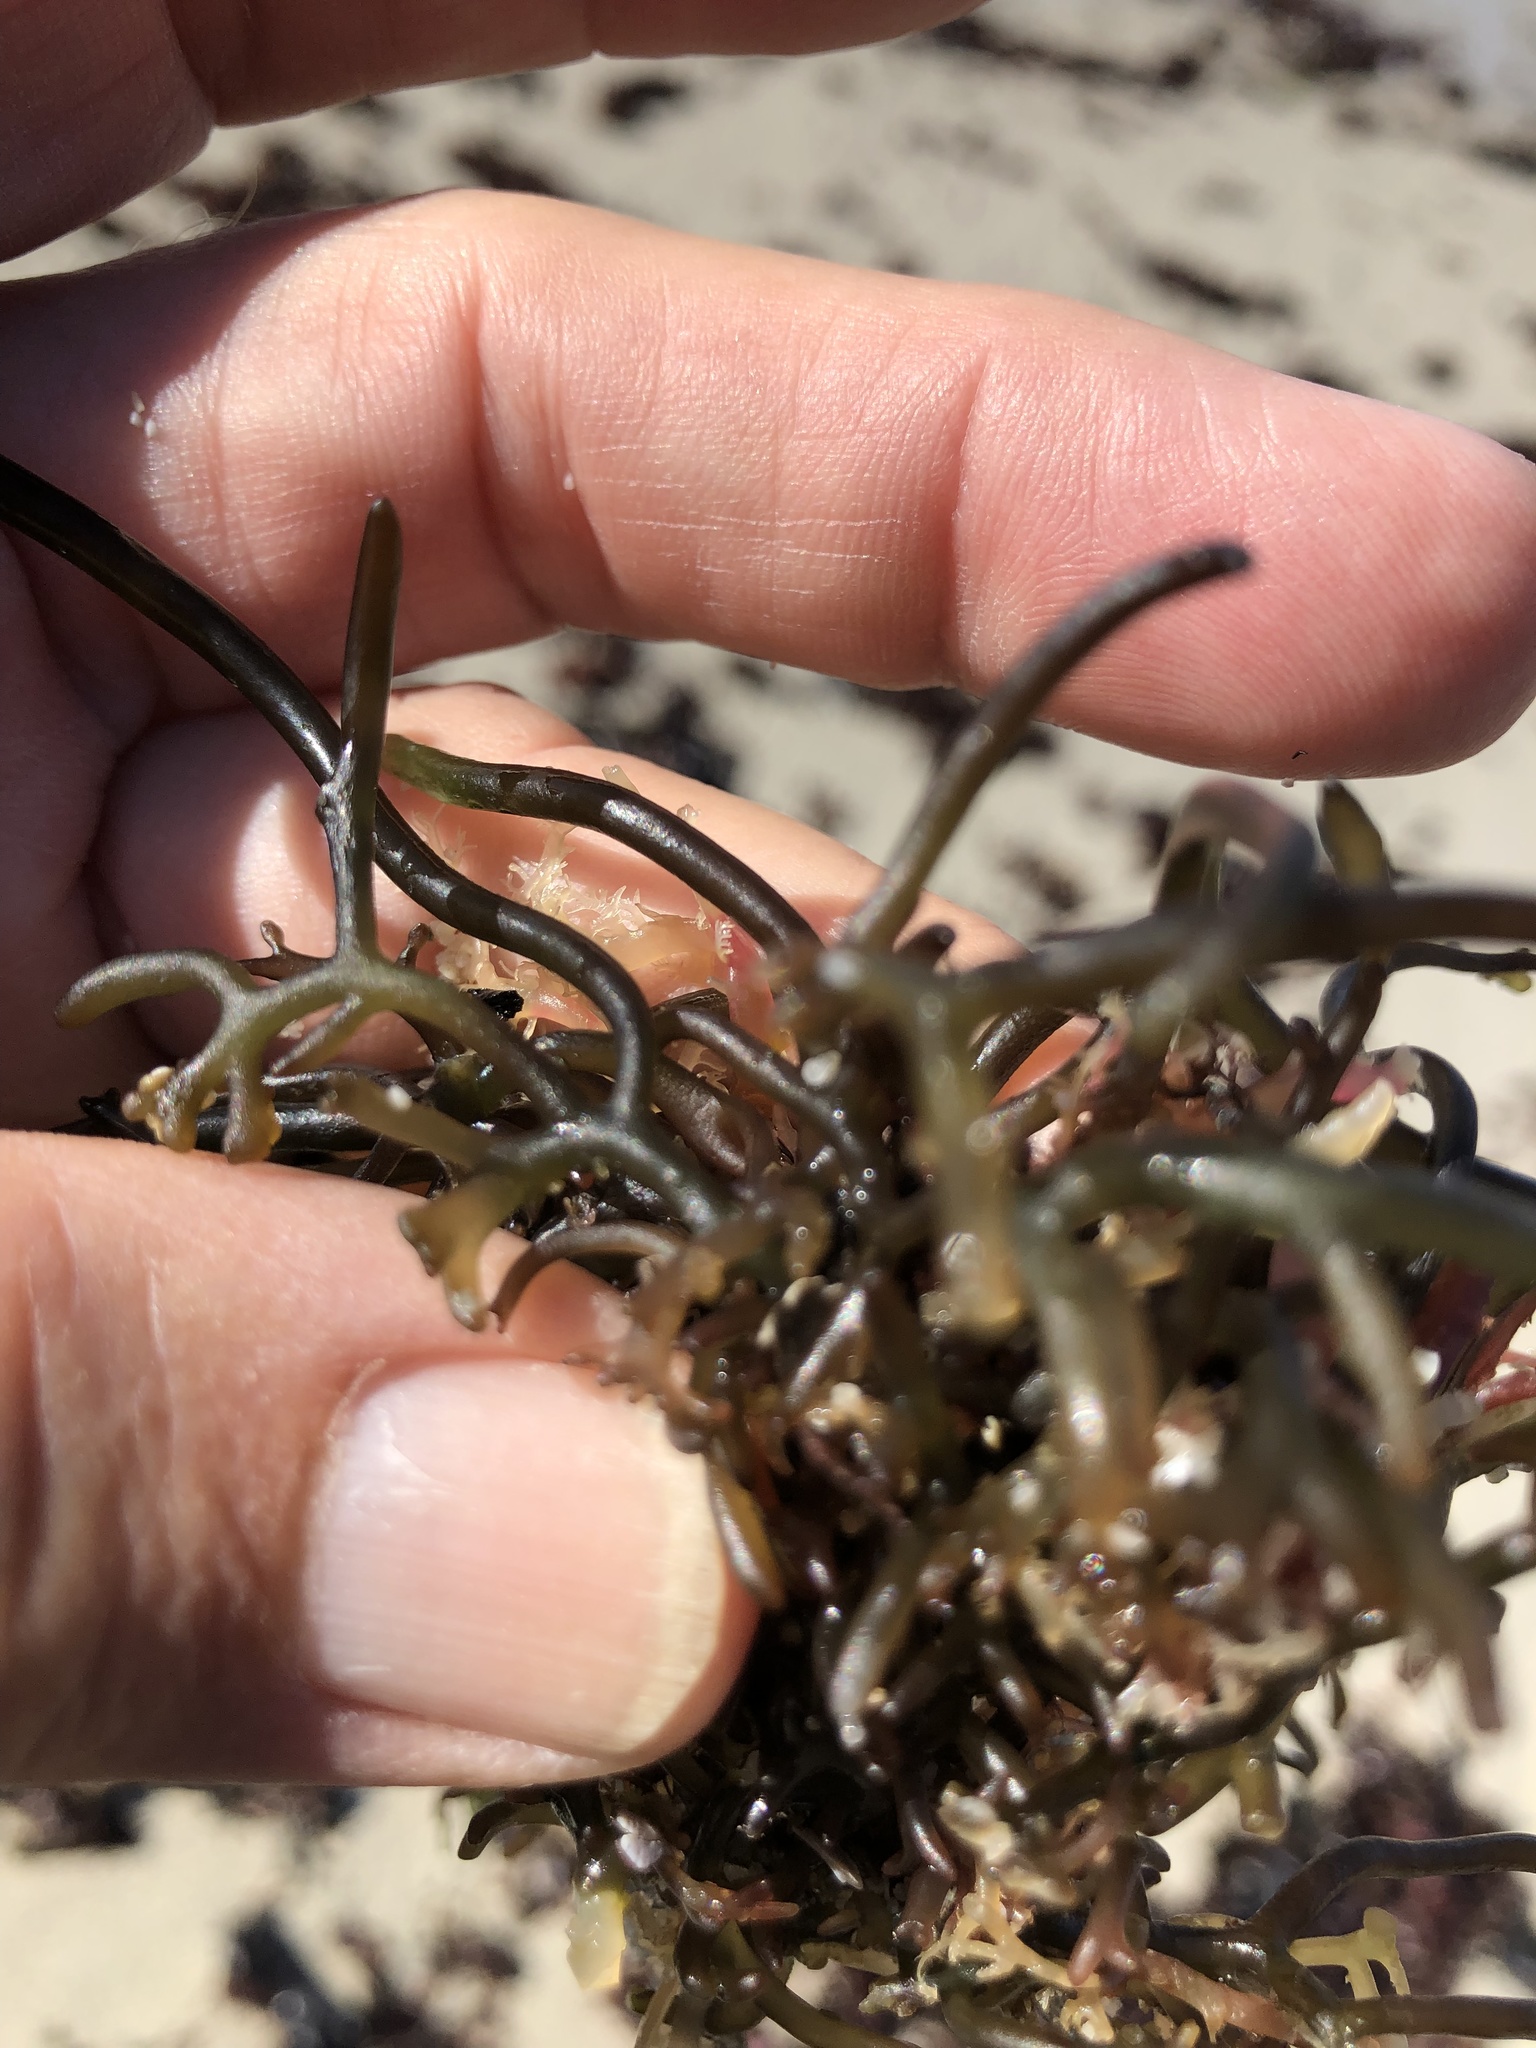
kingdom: Plantae
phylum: Rhodophyta
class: Florideophyceae
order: Rhodymeniales
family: Champiaceae
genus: Neogastroclonium
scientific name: Neogastroclonium subarticulatum
